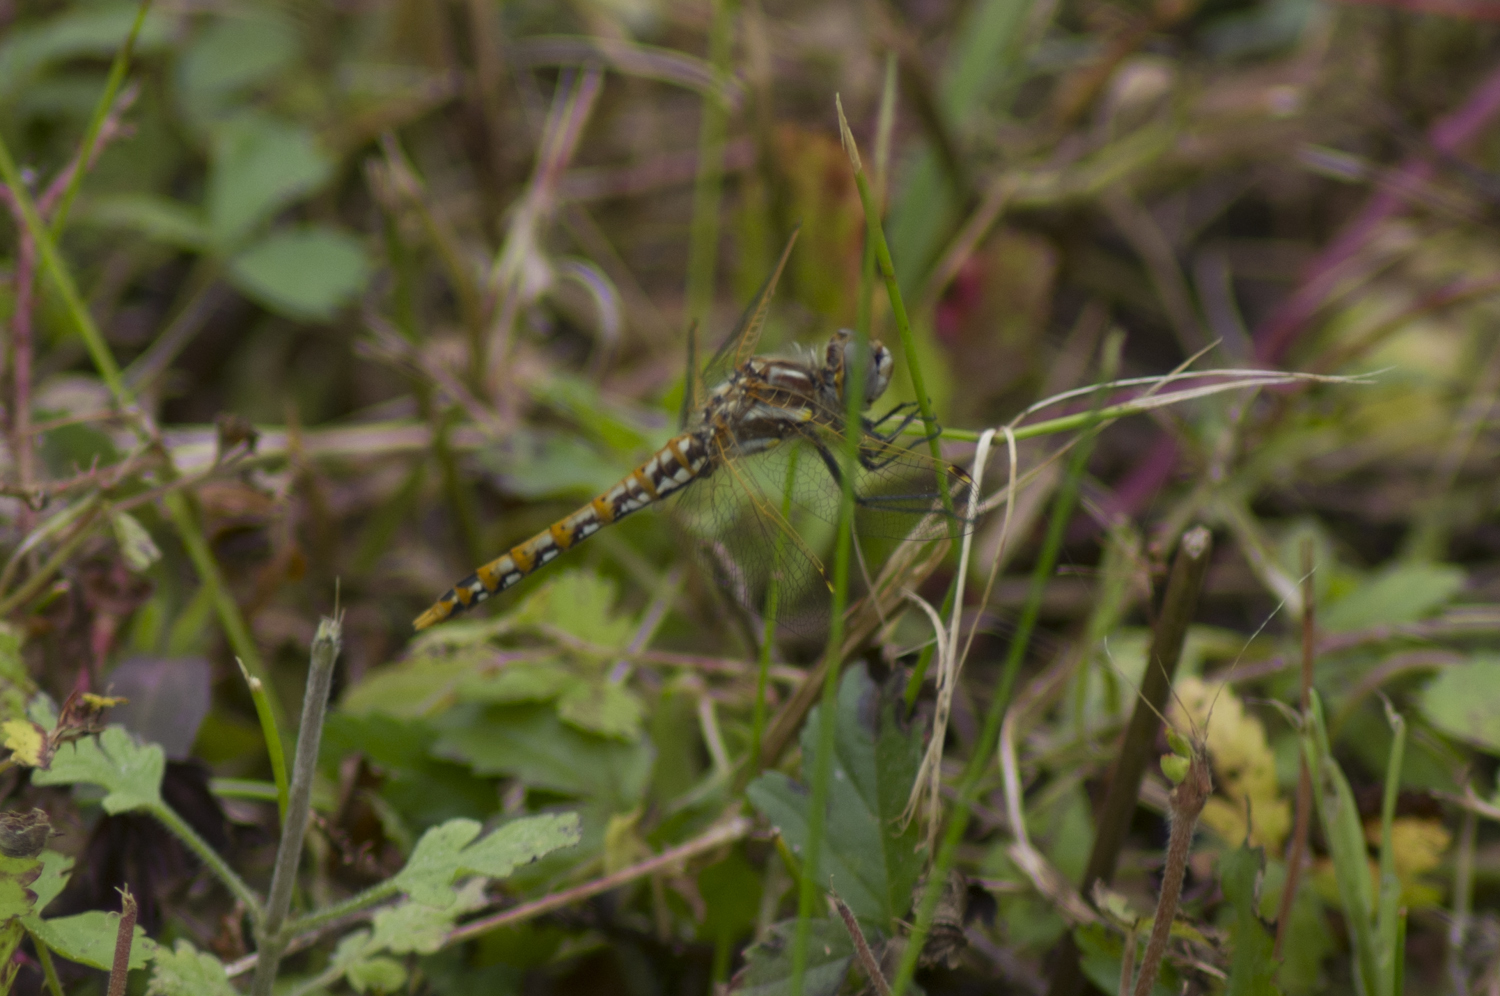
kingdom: Animalia
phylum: Arthropoda
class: Insecta
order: Odonata
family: Libellulidae
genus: Sympetrum
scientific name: Sympetrum corruptum
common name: Variegated meadowhawk
